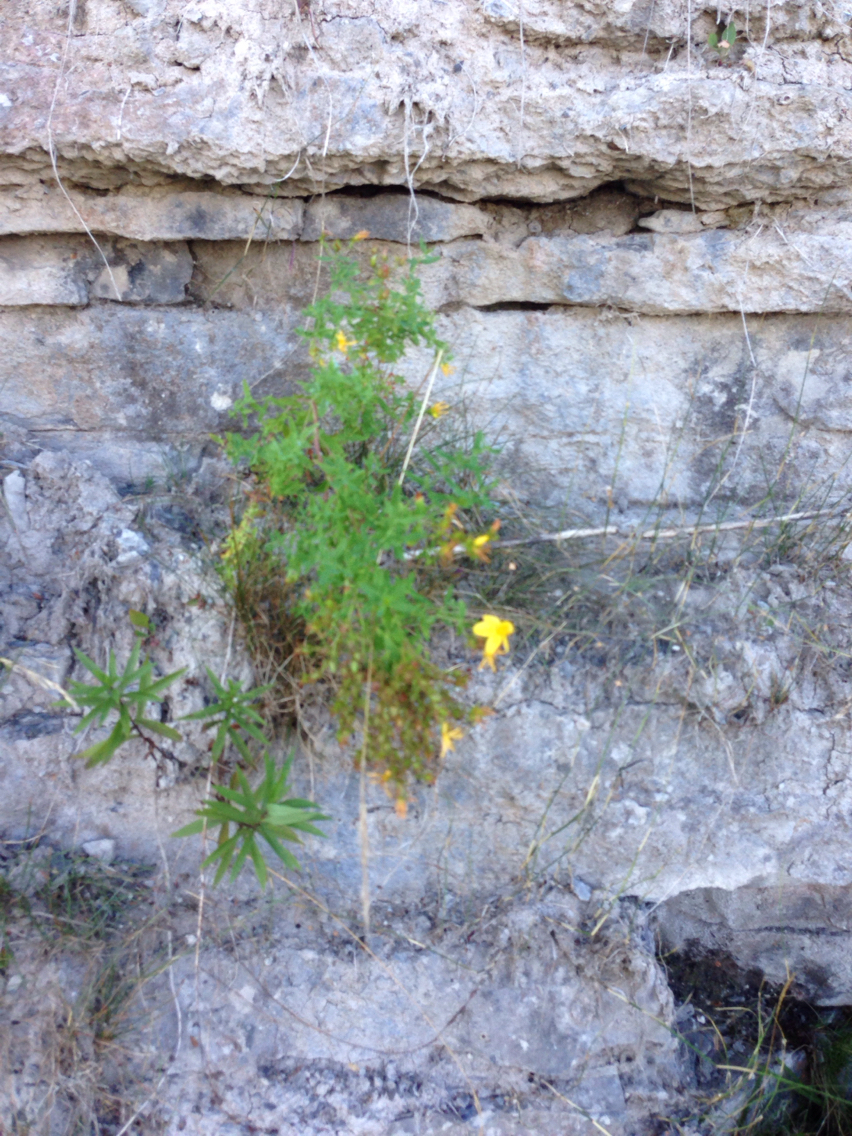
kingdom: Plantae
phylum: Tracheophyta
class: Magnoliopsida
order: Malpighiales
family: Hypericaceae
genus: Hypericum
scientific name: Hypericum perforatum
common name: Common st. johnswort
